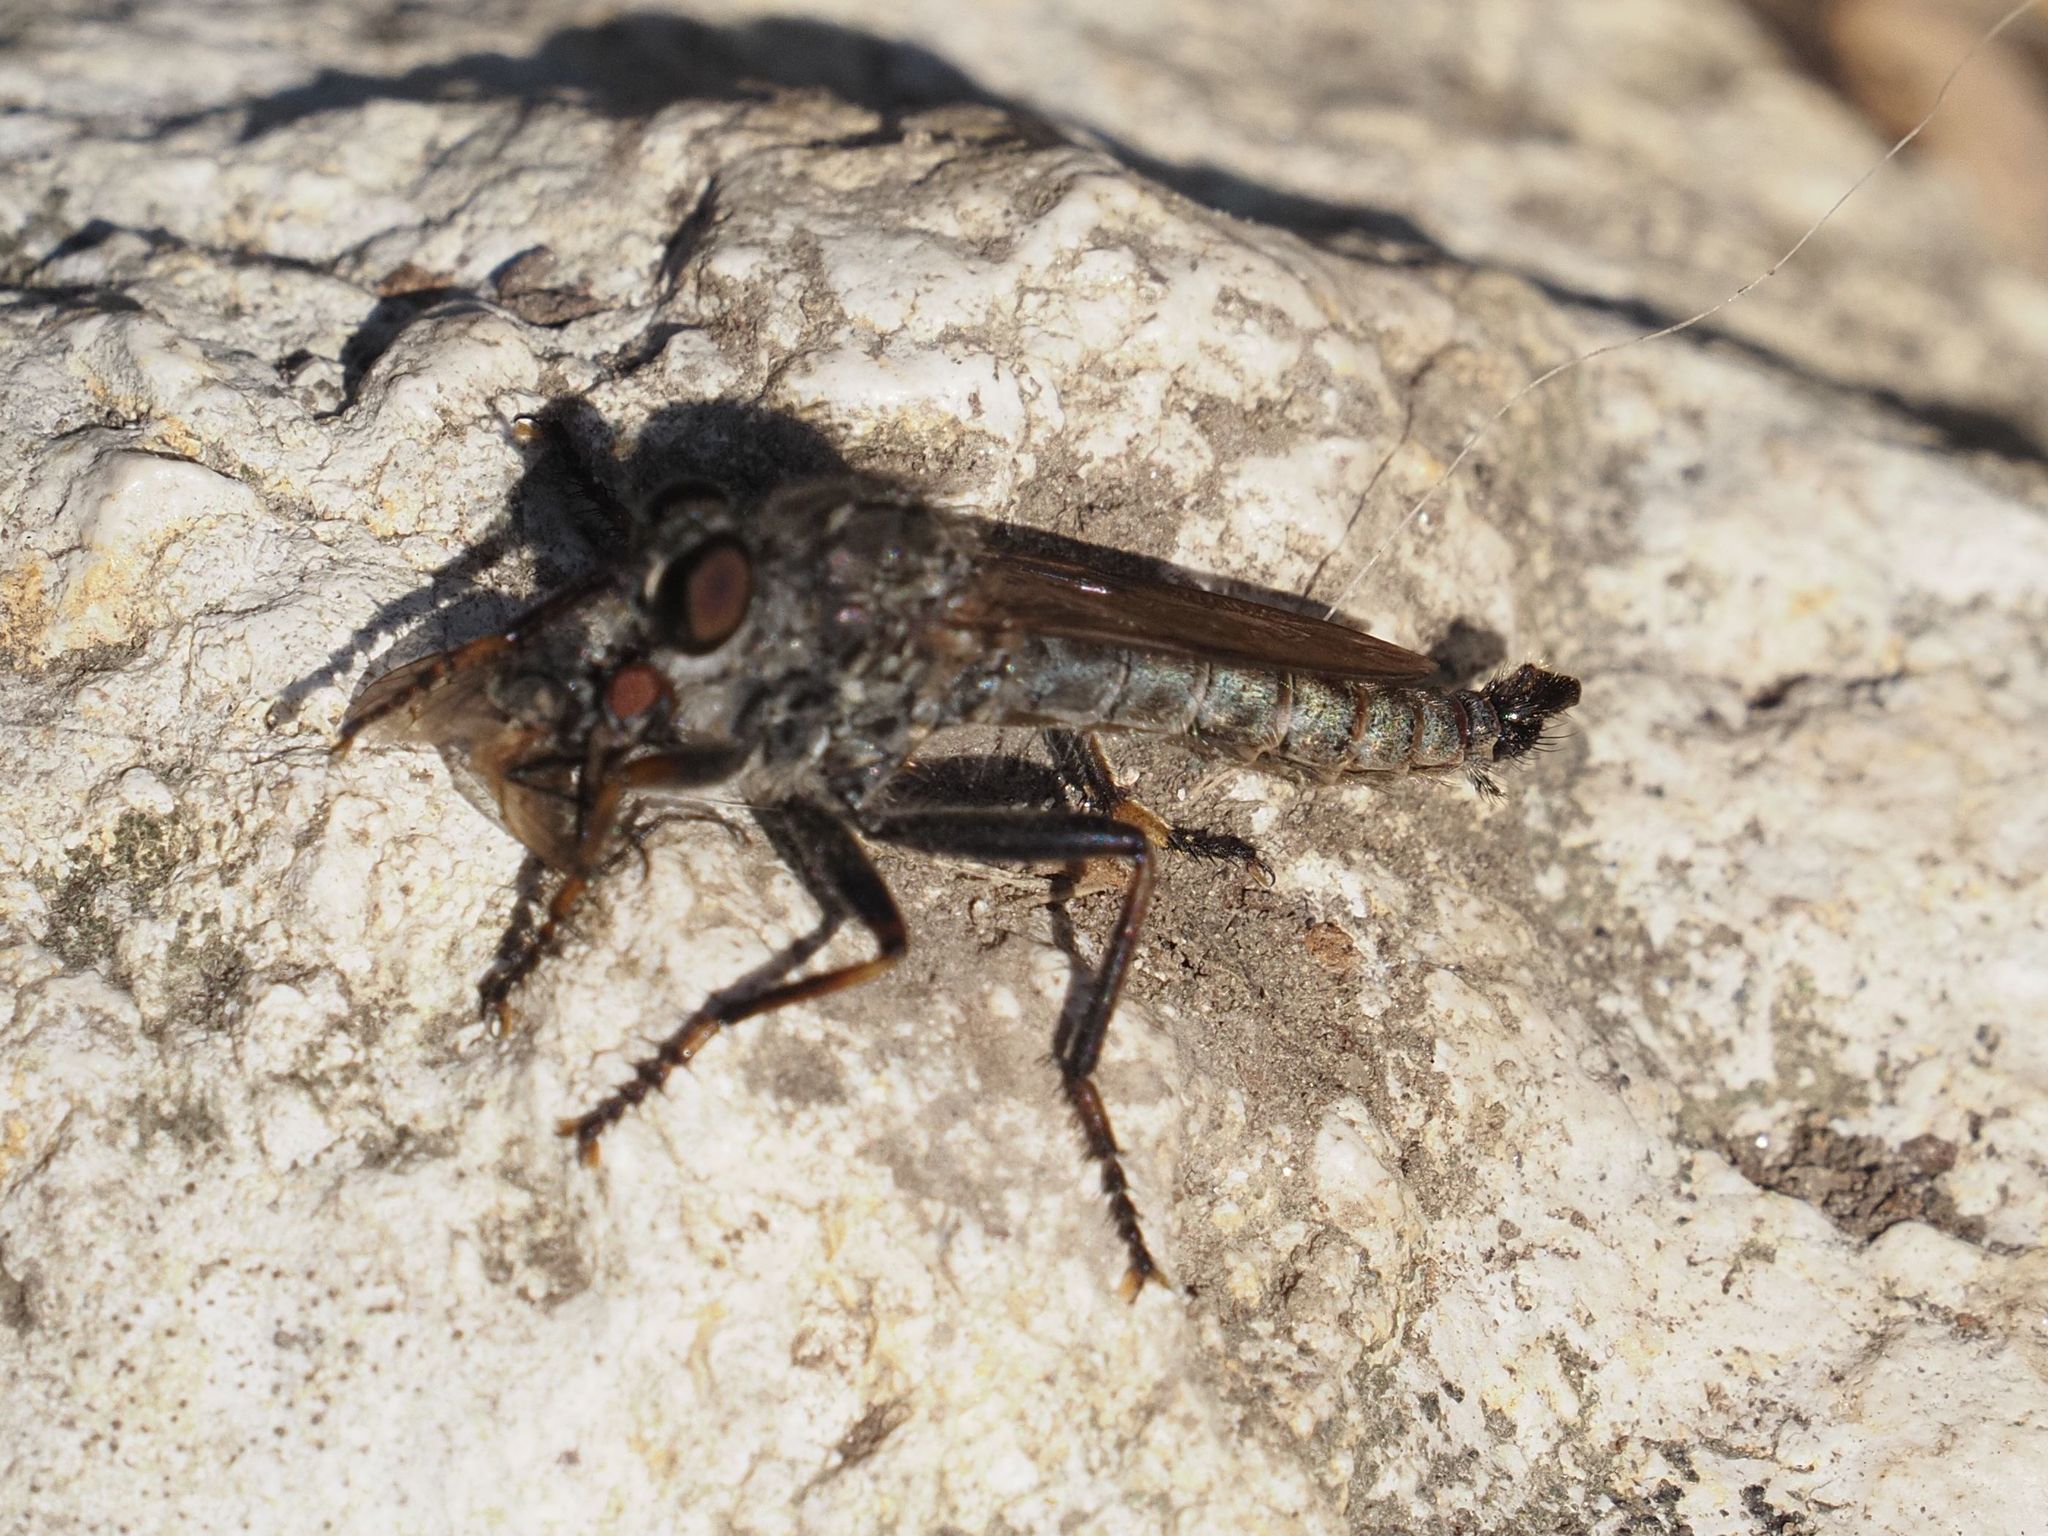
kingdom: Animalia
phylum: Arthropoda
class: Insecta
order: Diptera
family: Asilidae
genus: Machimus
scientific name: Machimus atricapillus
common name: Kite-tailed robberfly
